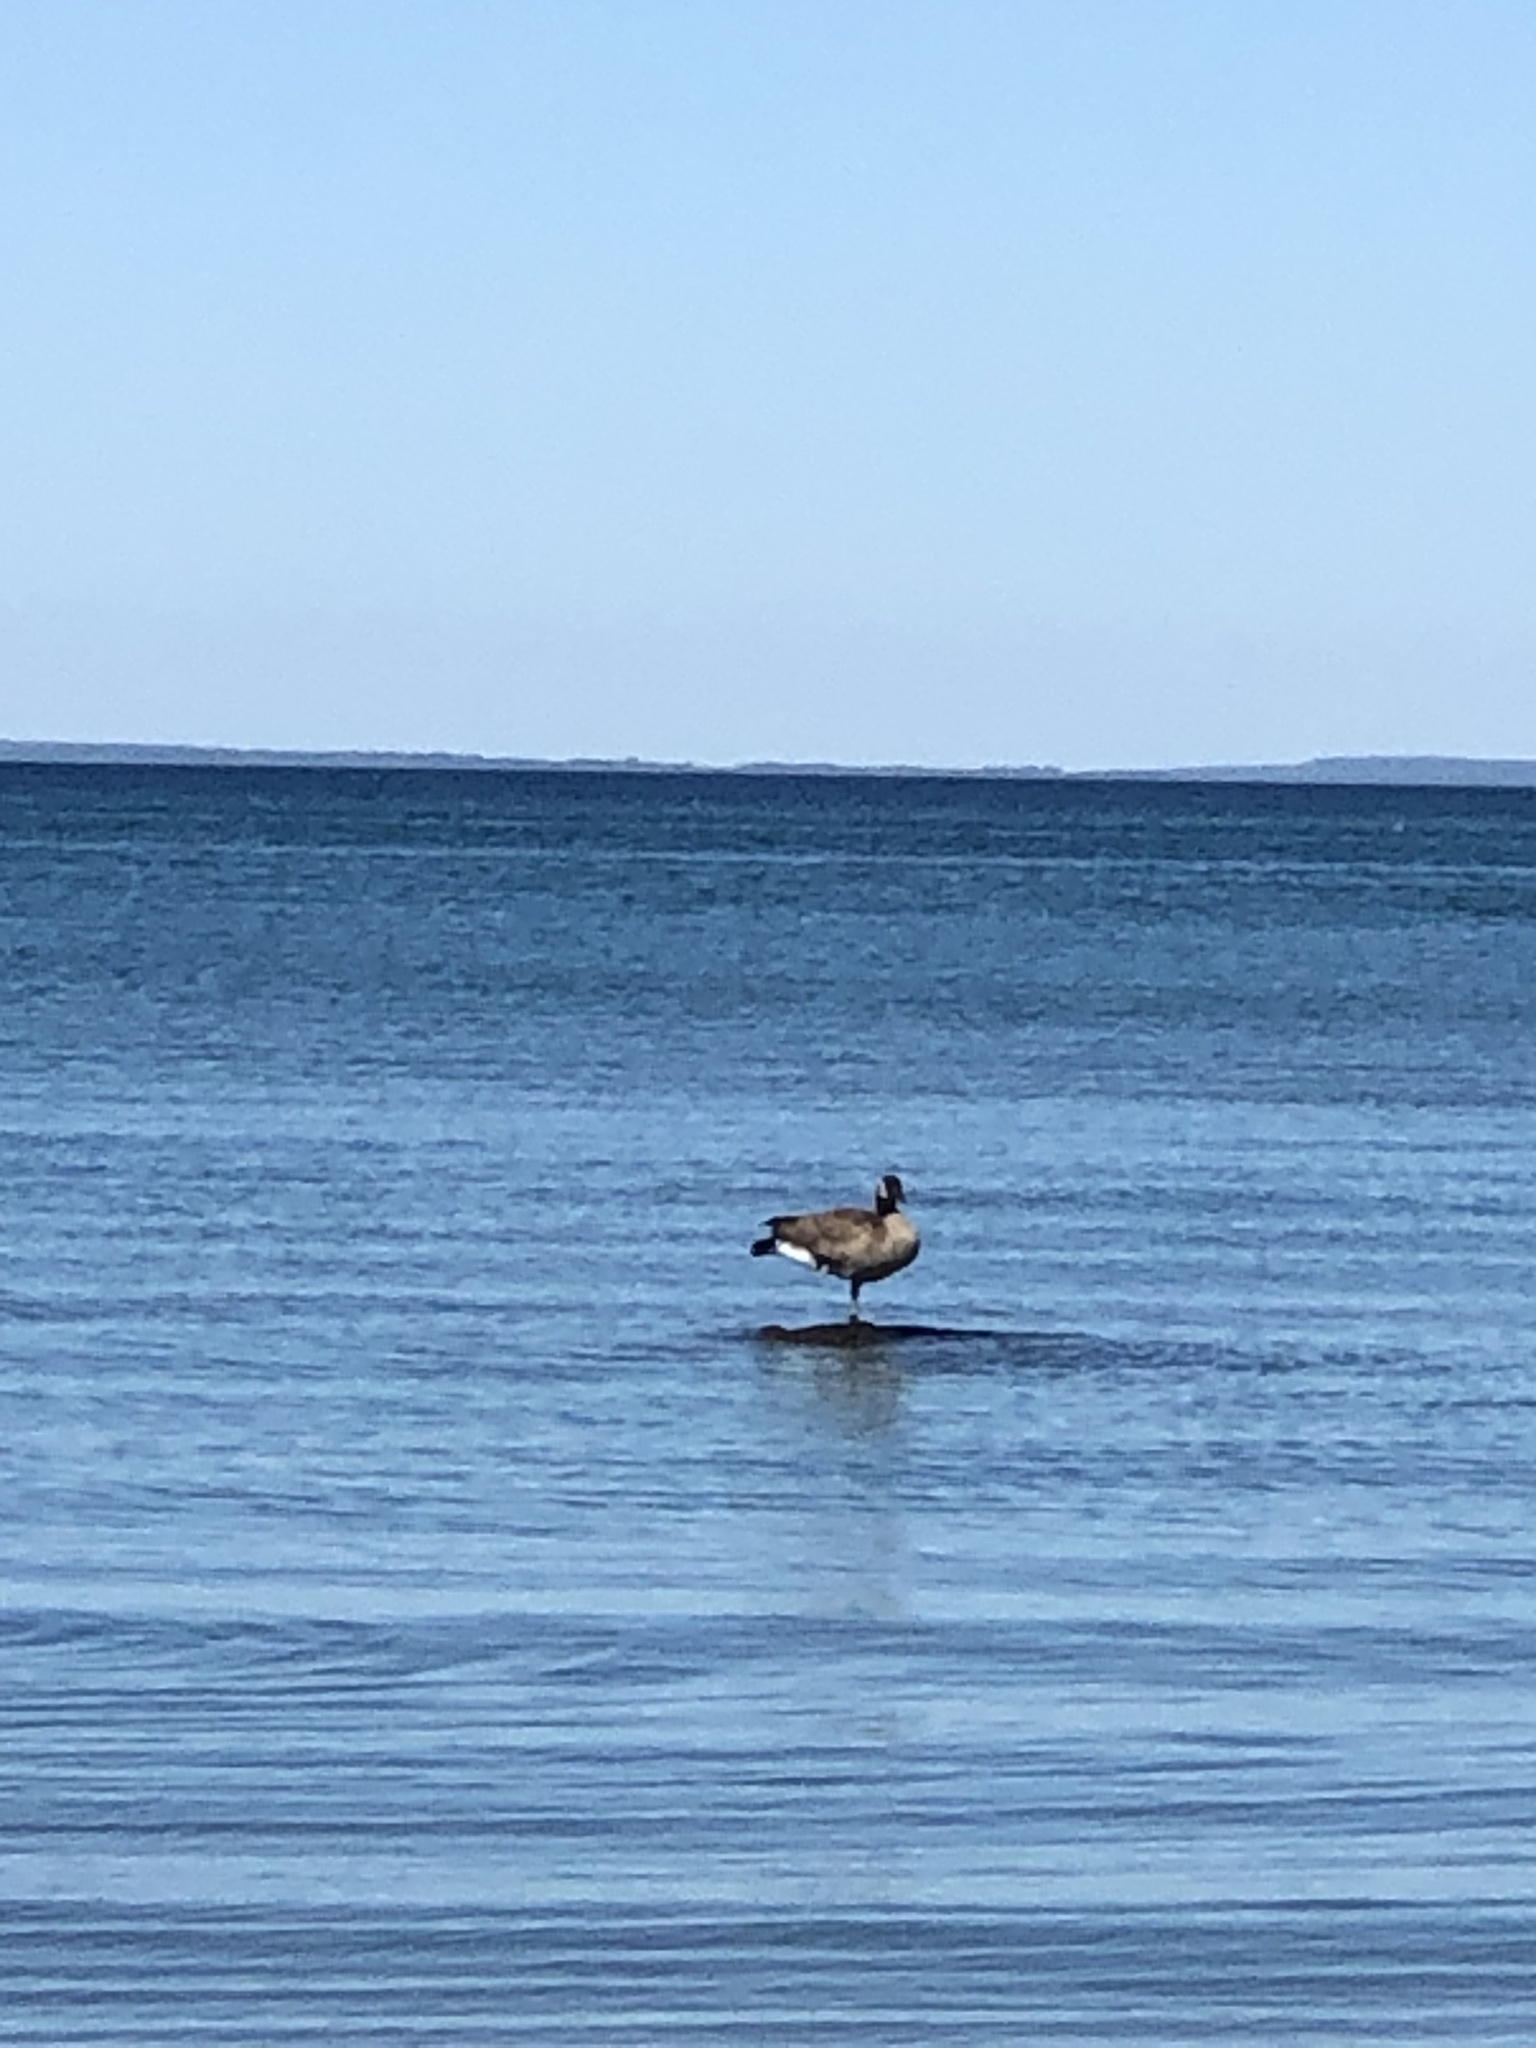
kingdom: Animalia
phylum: Chordata
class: Aves
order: Anseriformes
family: Anatidae
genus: Branta
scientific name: Branta canadensis
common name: Canada goose
